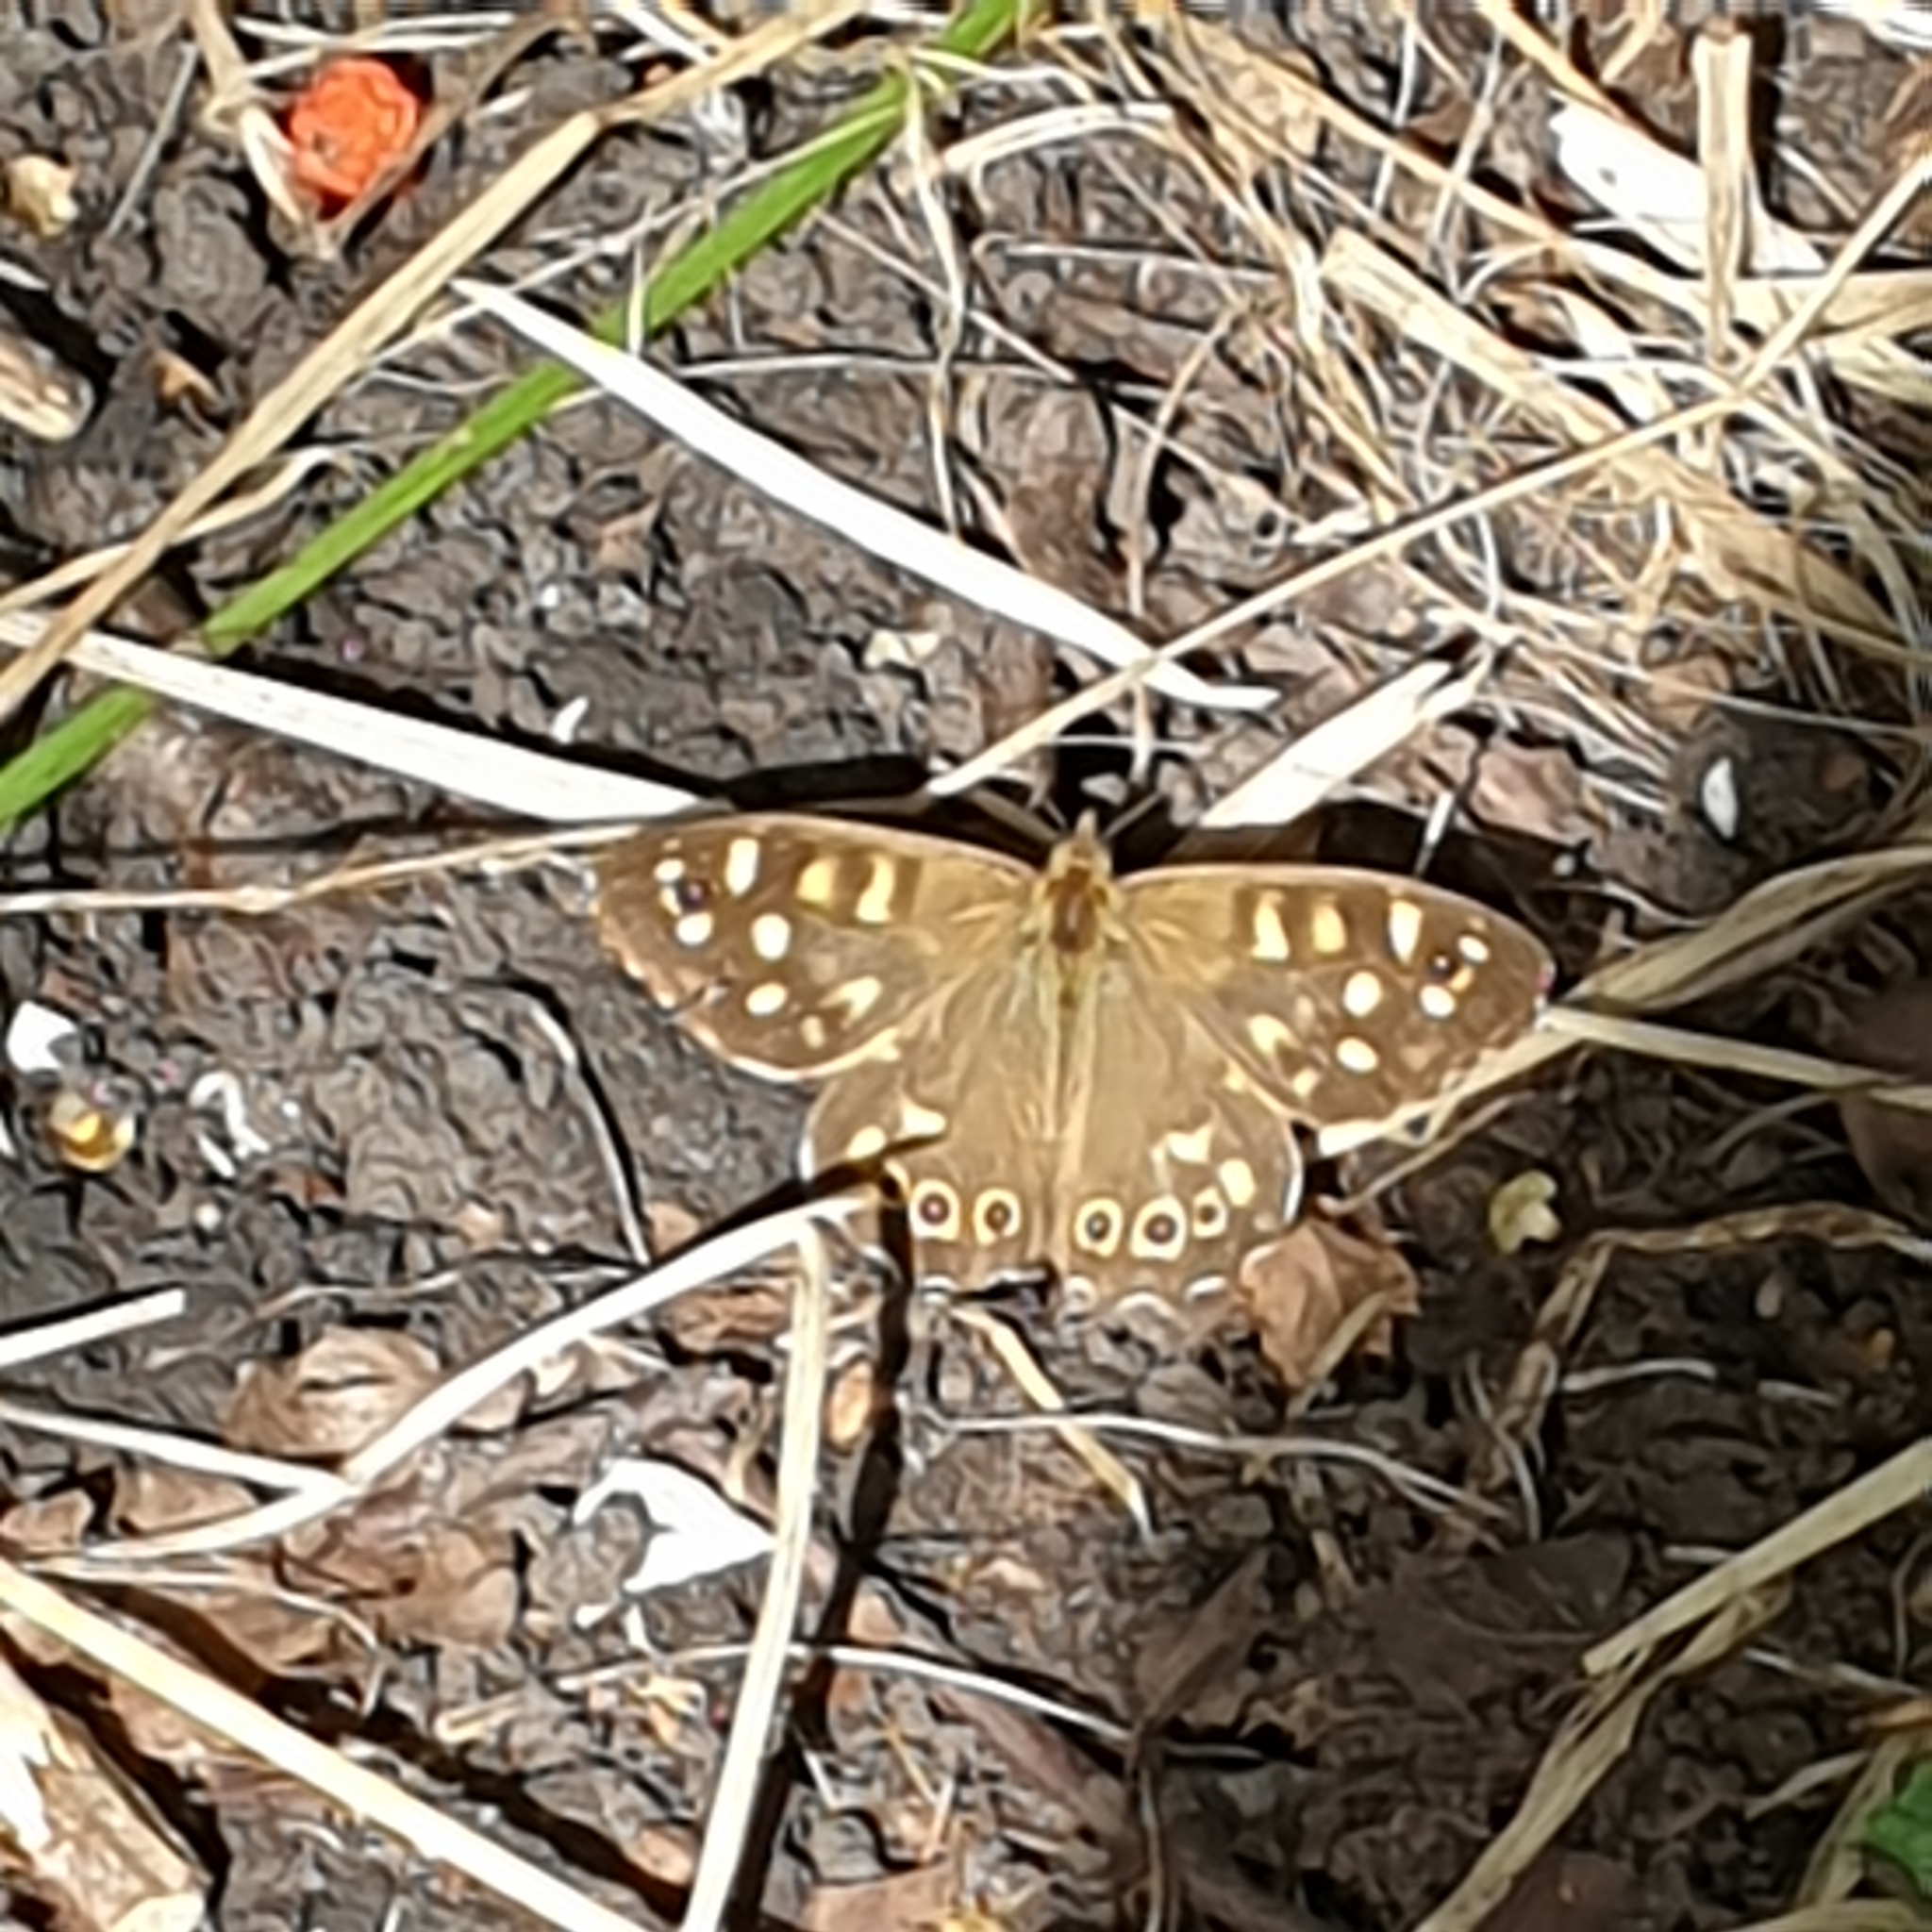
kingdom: Animalia
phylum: Arthropoda
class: Insecta
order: Lepidoptera
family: Nymphalidae
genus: Pararge
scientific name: Pararge aegeria
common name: Speckled wood
